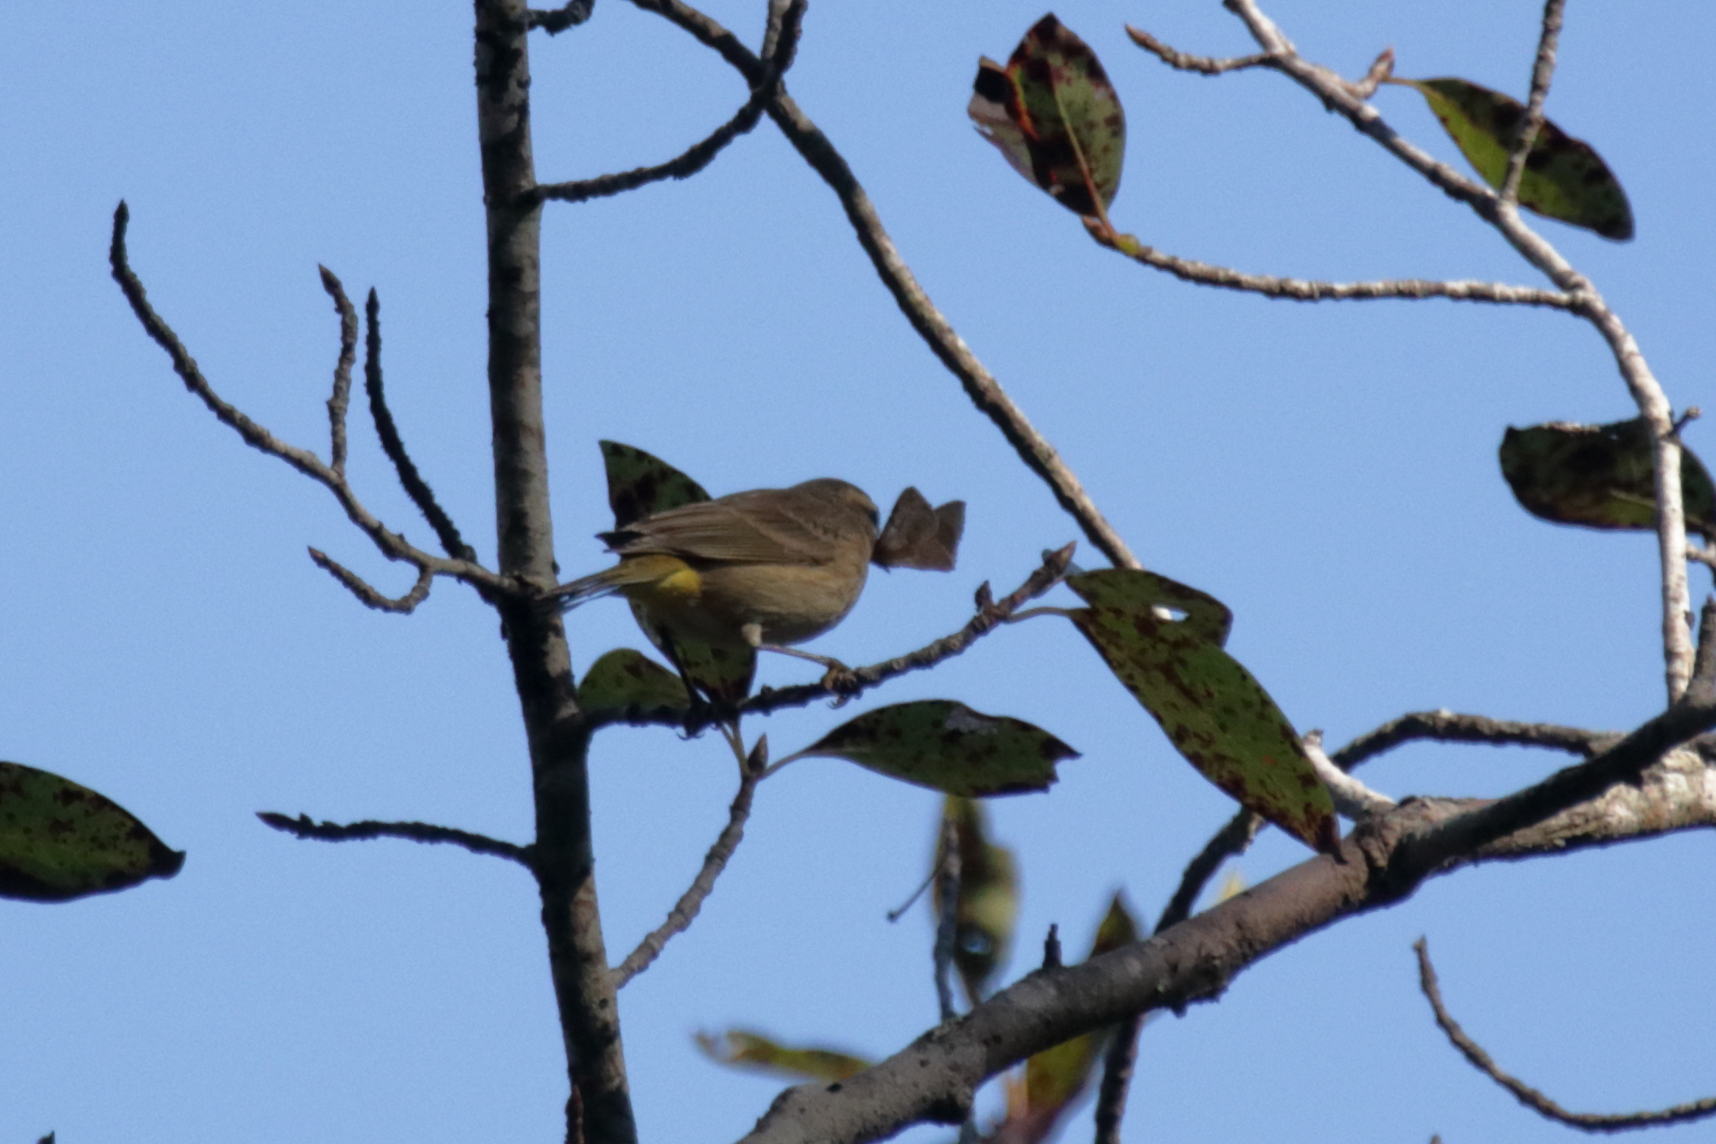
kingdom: Animalia
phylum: Chordata
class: Aves
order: Passeriformes
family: Parulidae
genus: Setophaga
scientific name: Setophaga palmarum
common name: Palm warbler
